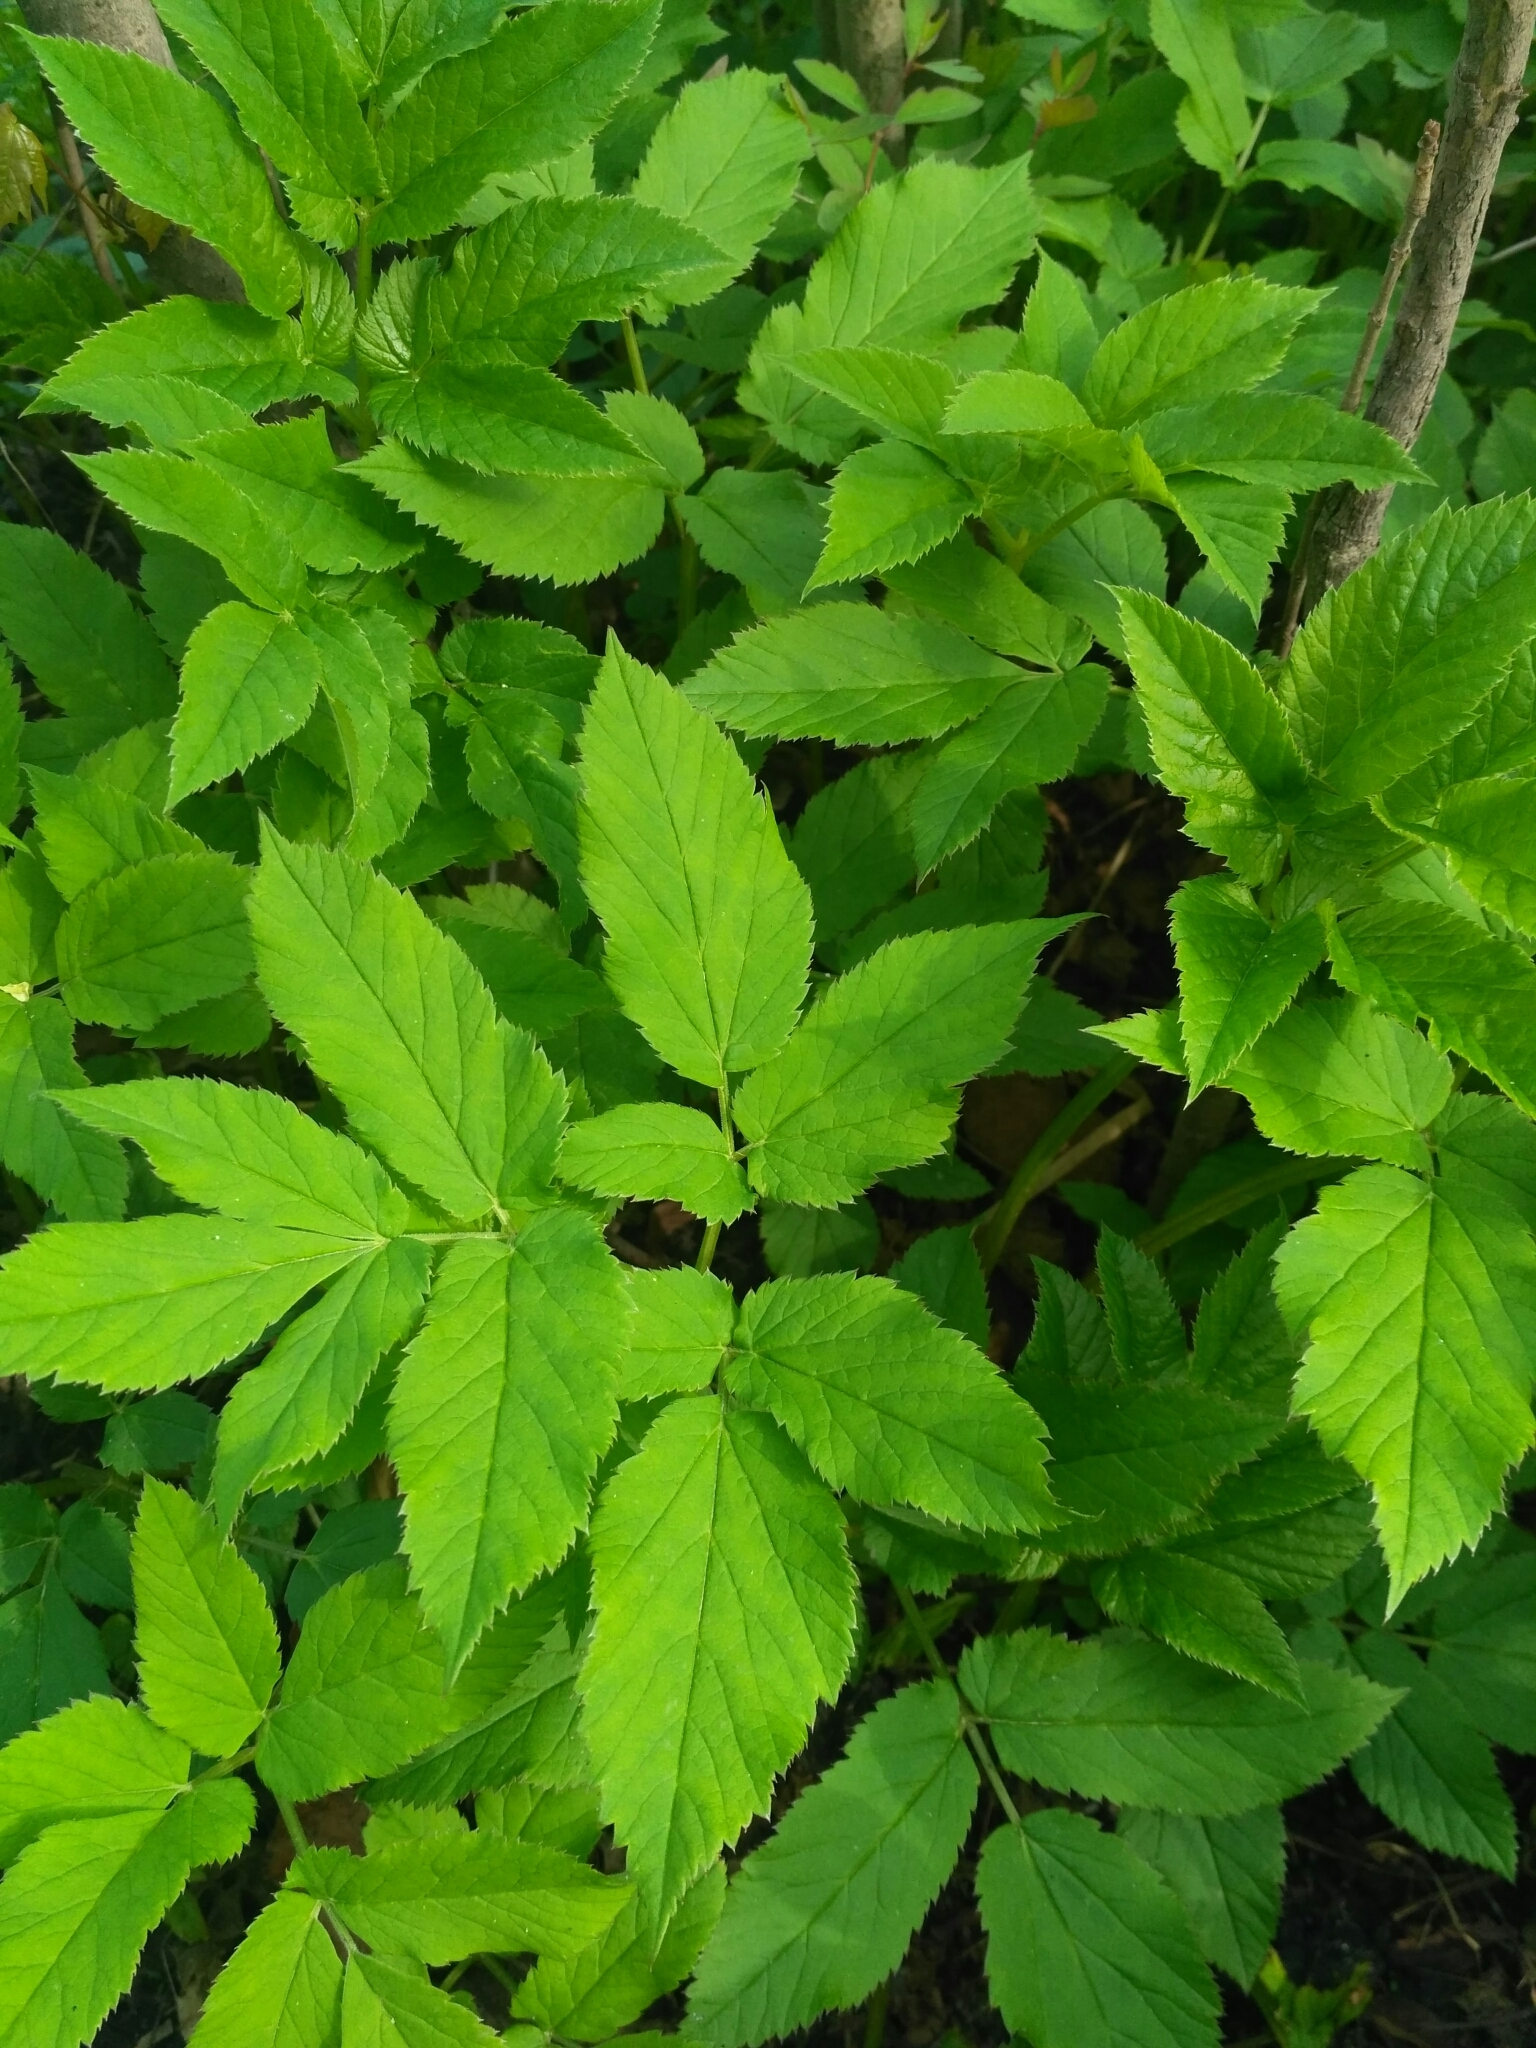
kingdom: Plantae
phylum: Tracheophyta
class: Magnoliopsida
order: Apiales
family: Apiaceae
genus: Aegopodium
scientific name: Aegopodium podagraria
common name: Ground-elder
